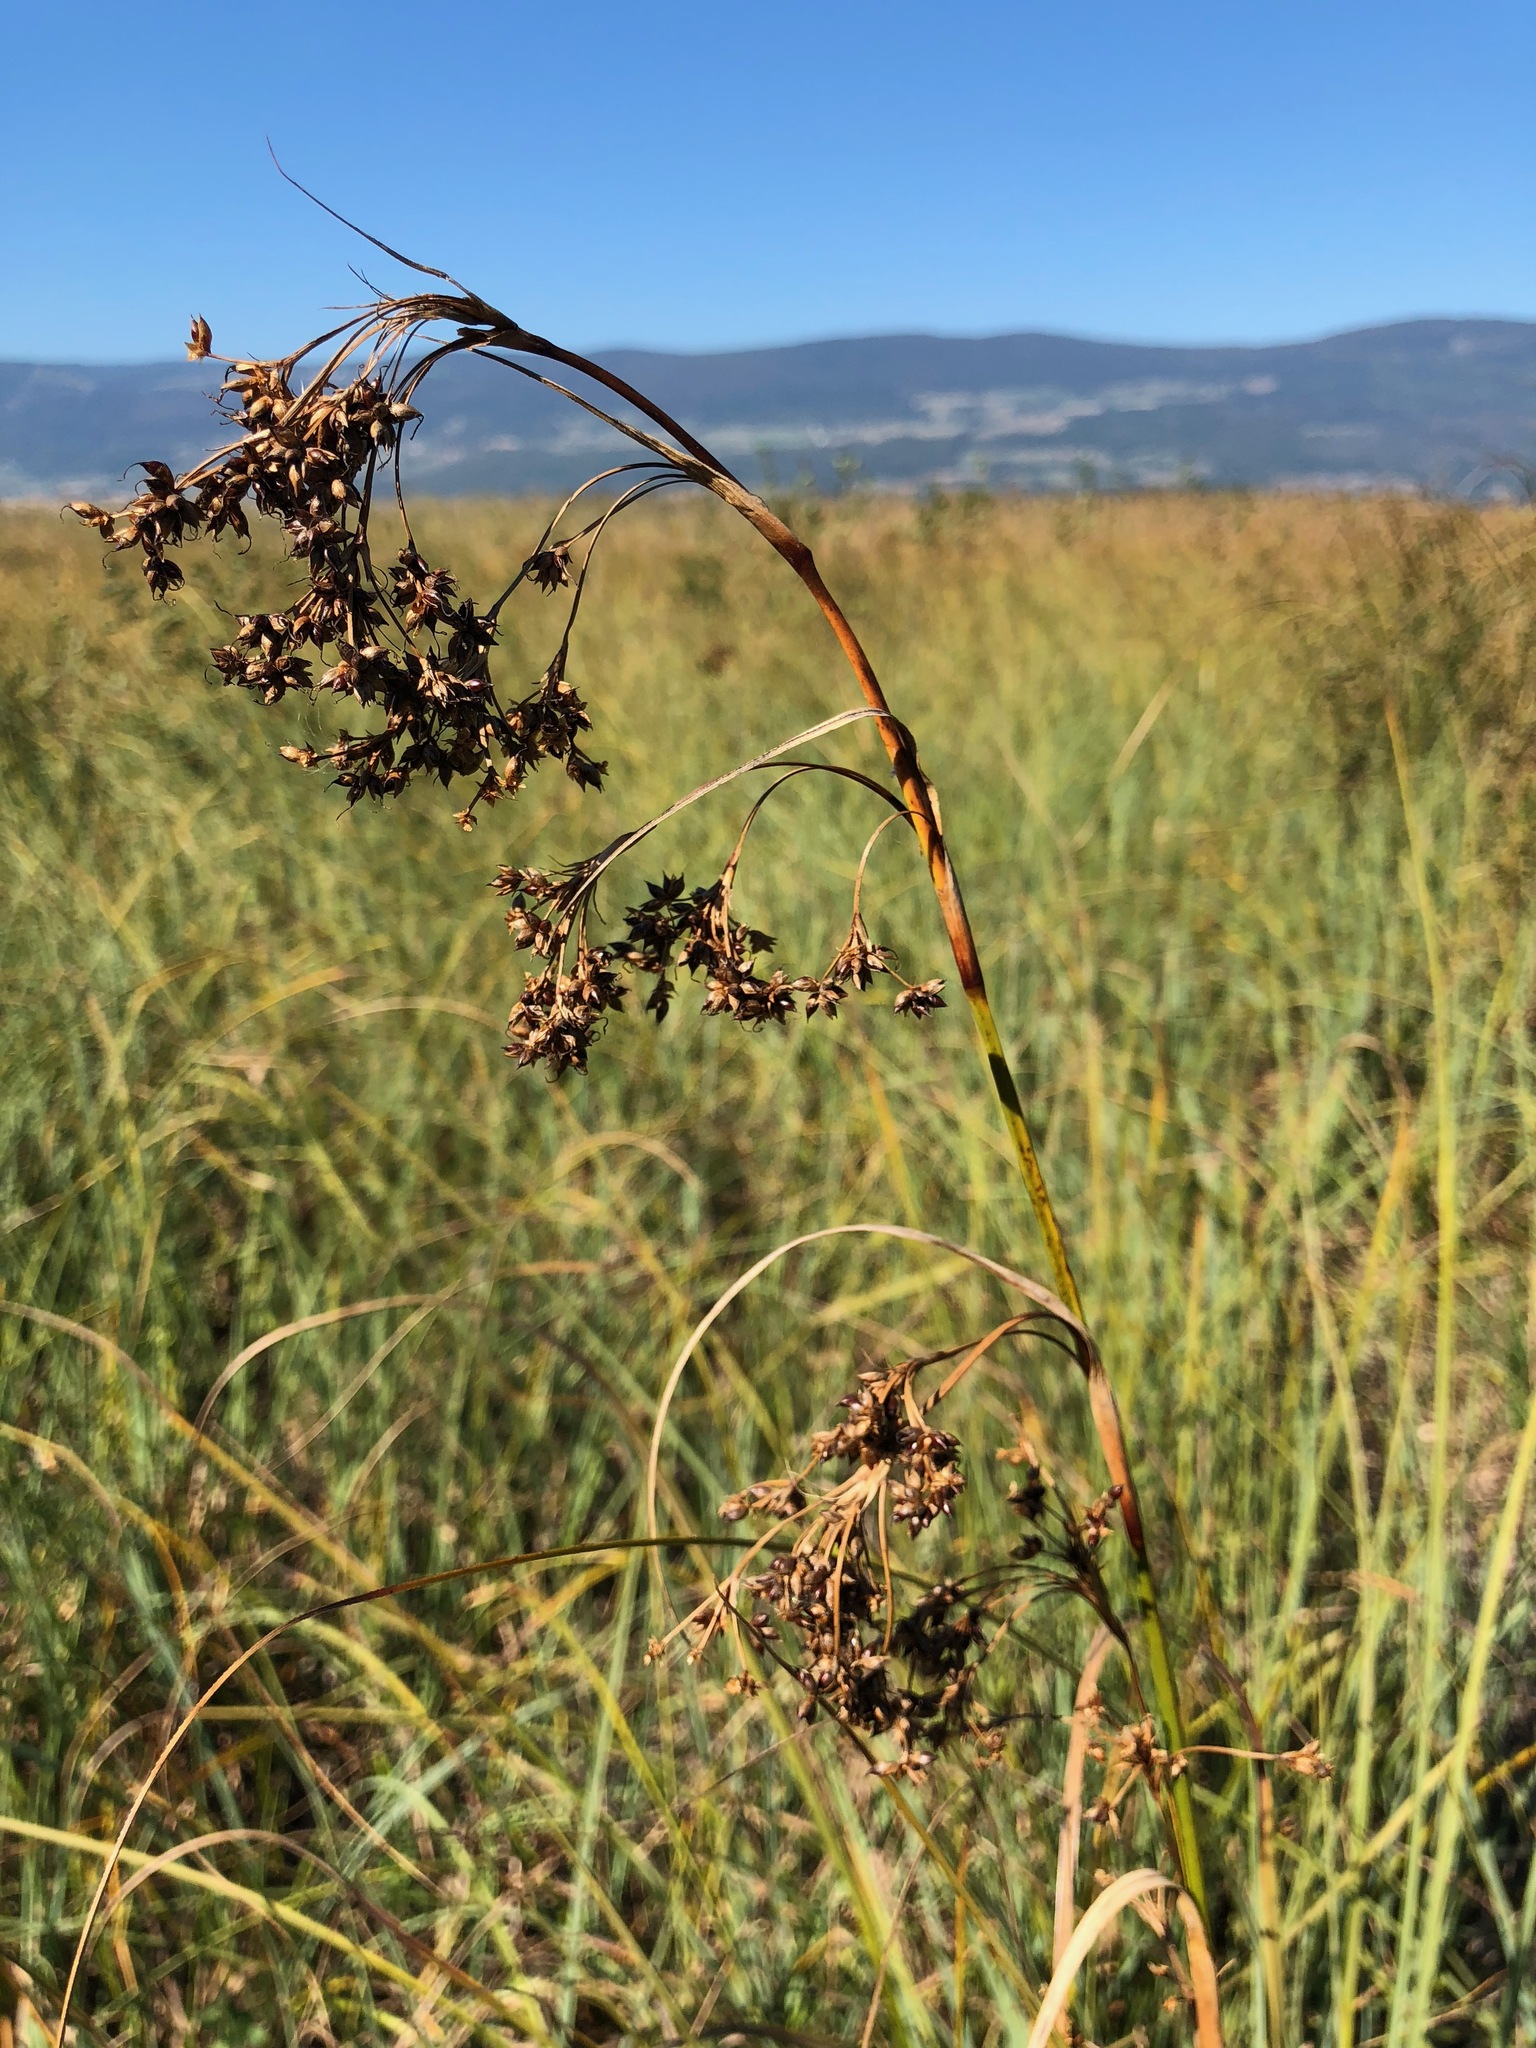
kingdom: Plantae
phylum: Tracheophyta
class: Liliopsida
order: Poales
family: Cyperaceae
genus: Cladium
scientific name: Cladium mariscus
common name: Great fen-sedge
